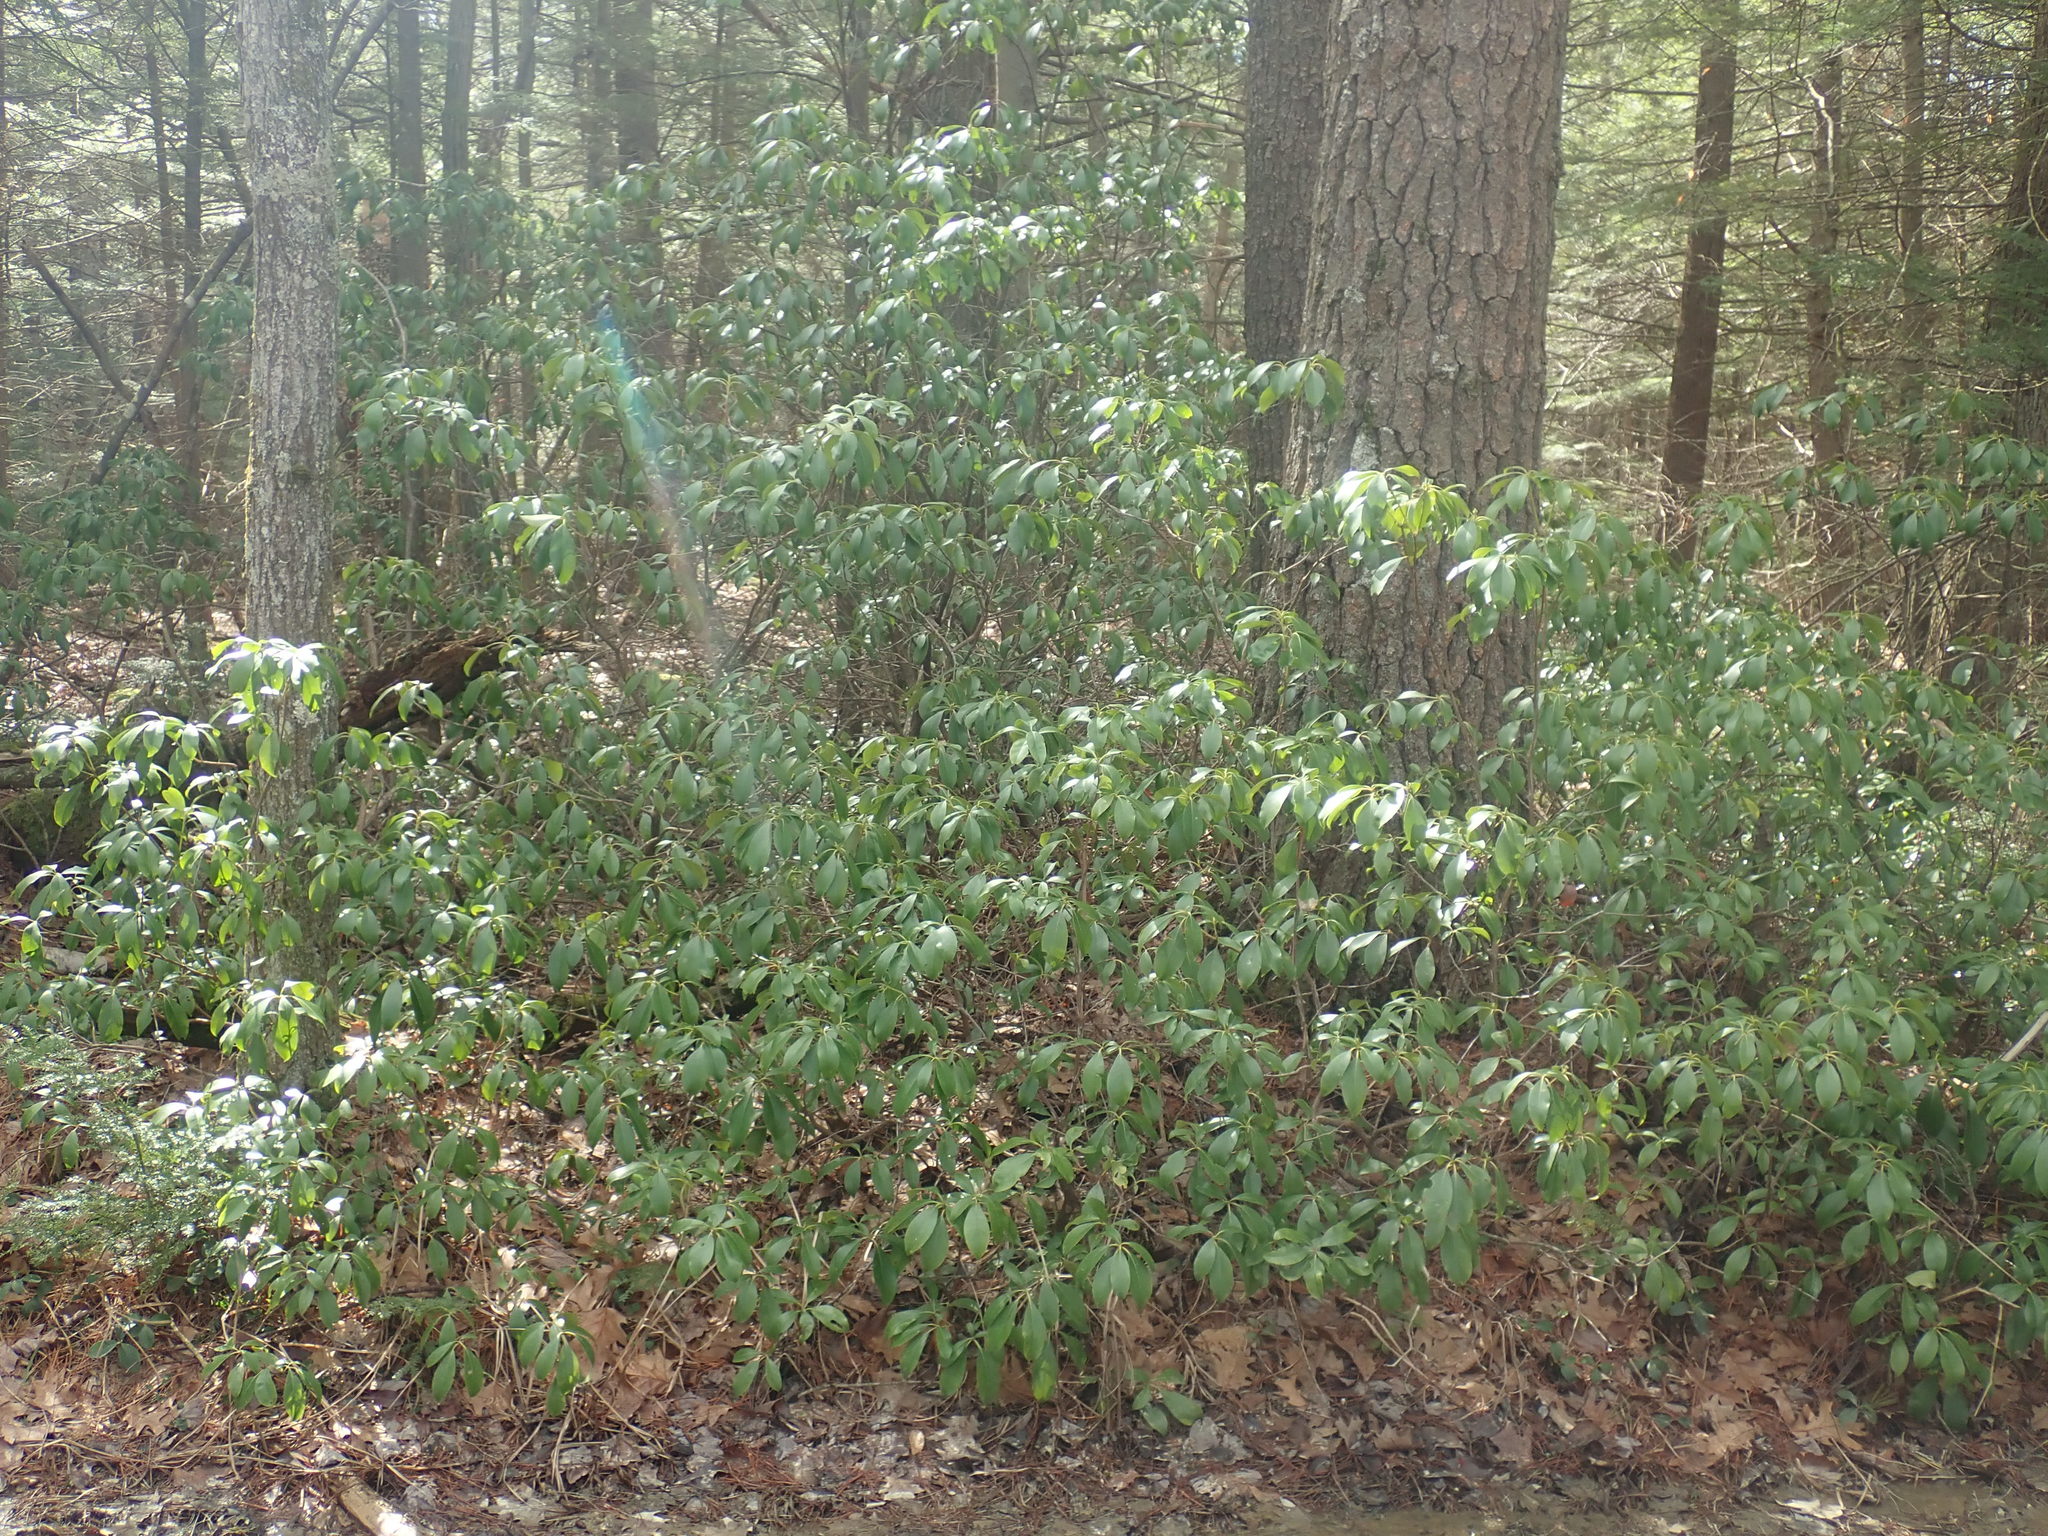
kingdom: Plantae
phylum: Tracheophyta
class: Magnoliopsida
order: Ericales
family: Ericaceae
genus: Kalmia
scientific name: Kalmia latifolia
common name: Mountain-laurel
